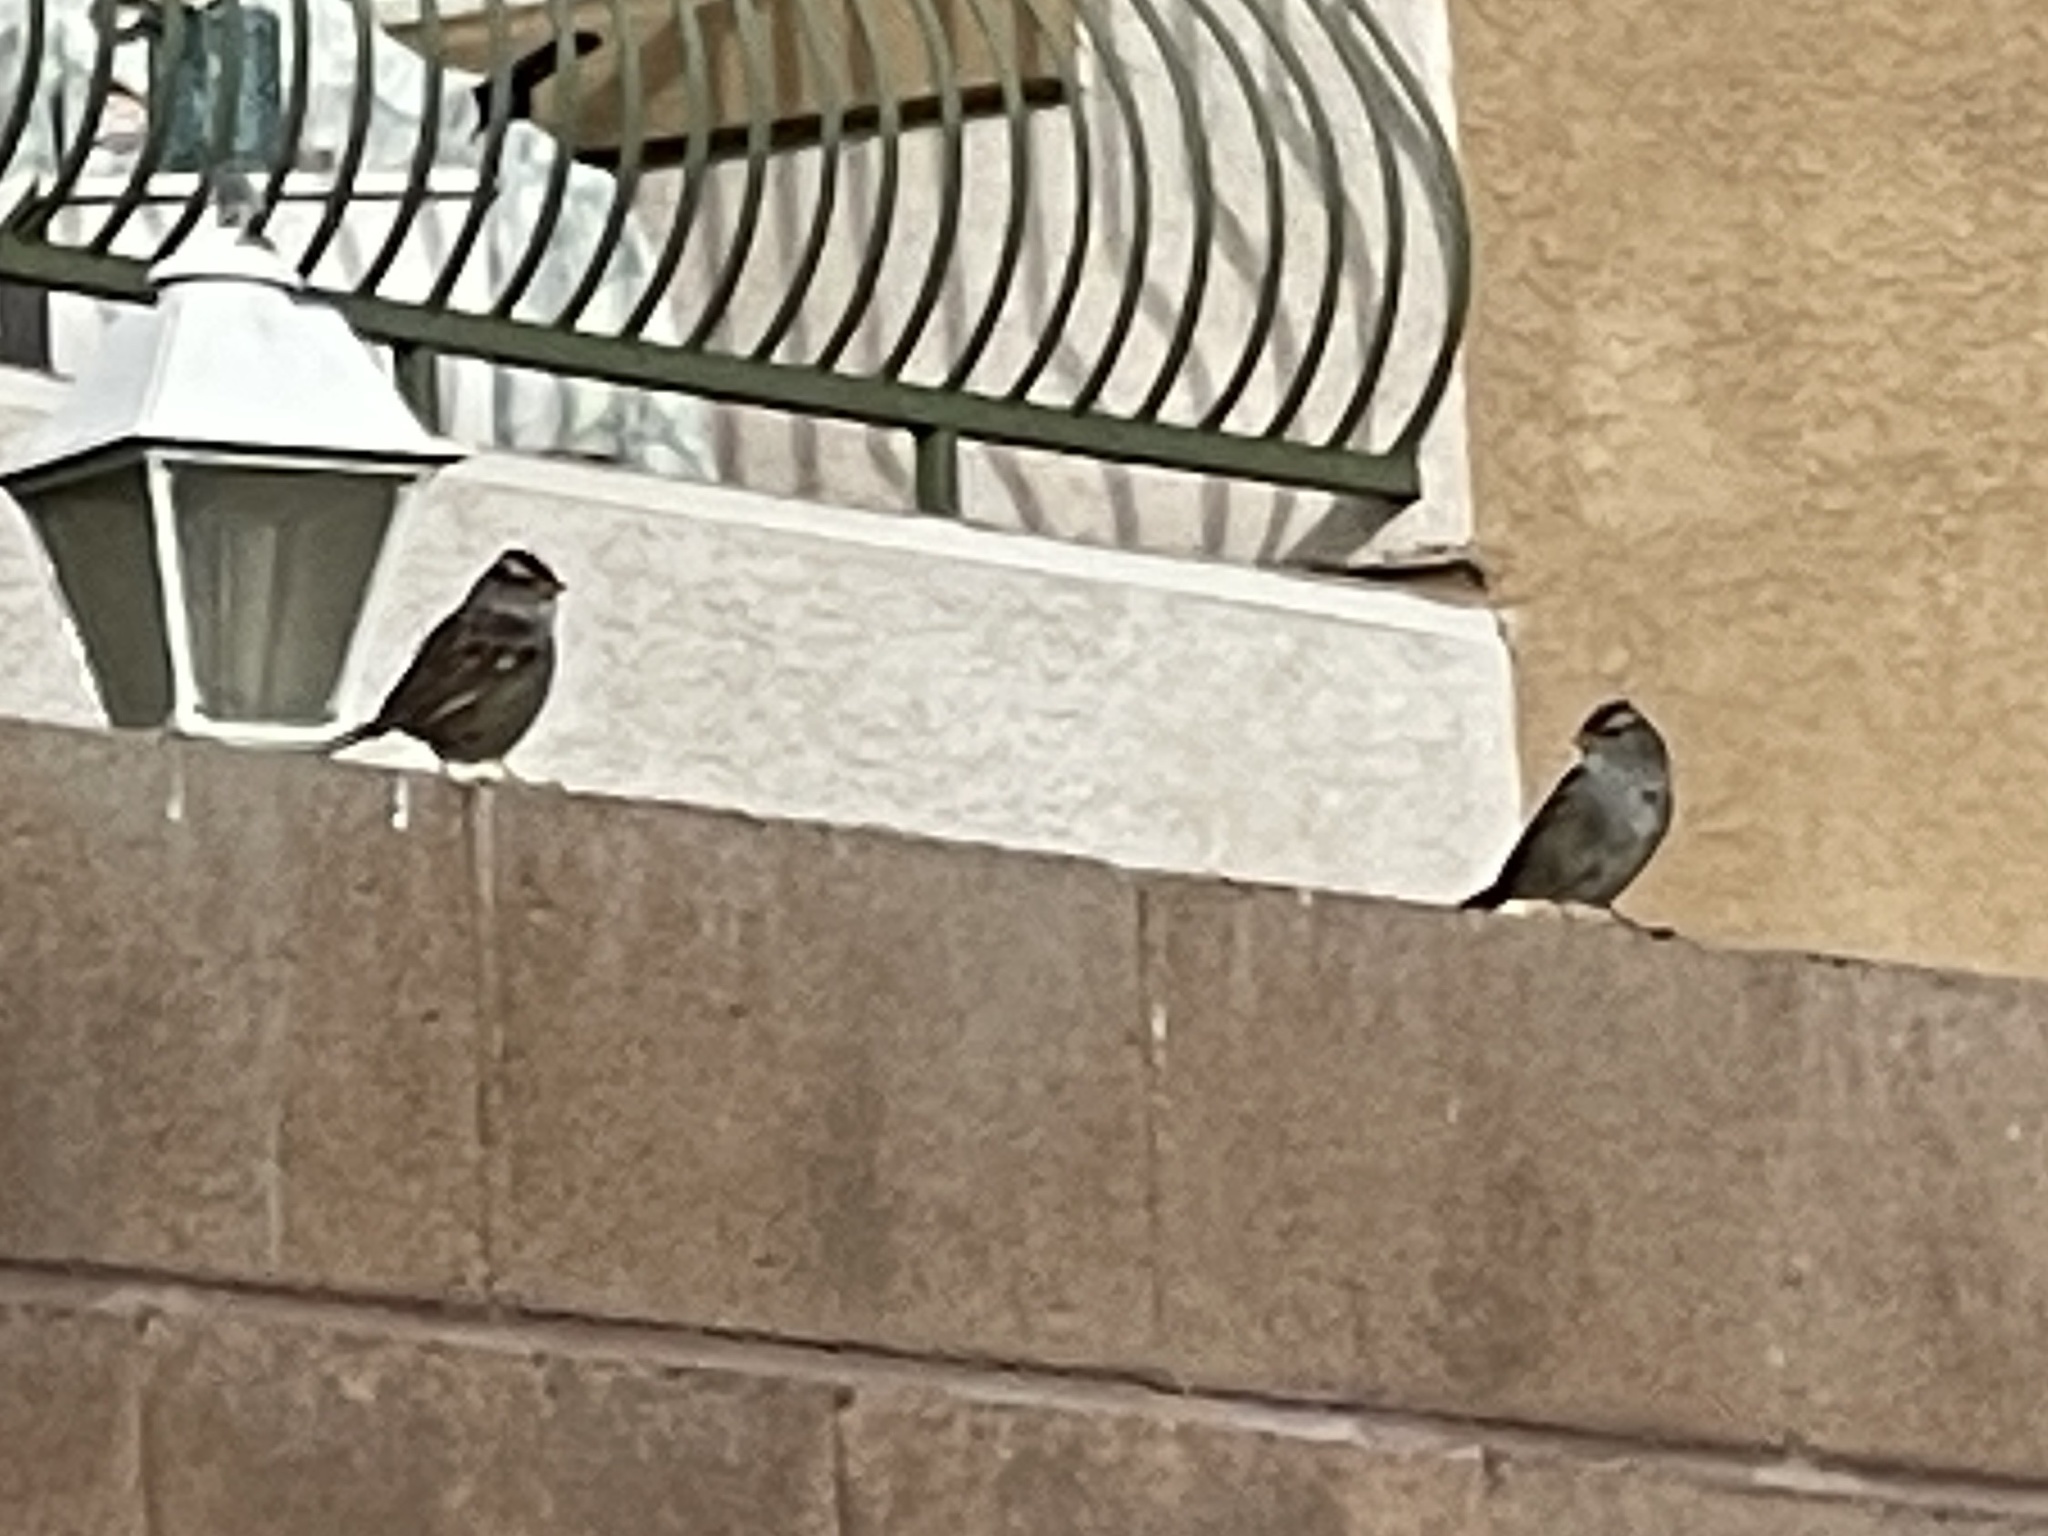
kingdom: Animalia
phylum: Chordata
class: Aves
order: Passeriformes
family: Passerellidae
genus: Zonotrichia
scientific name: Zonotrichia leucophrys
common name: White-crowned sparrow
